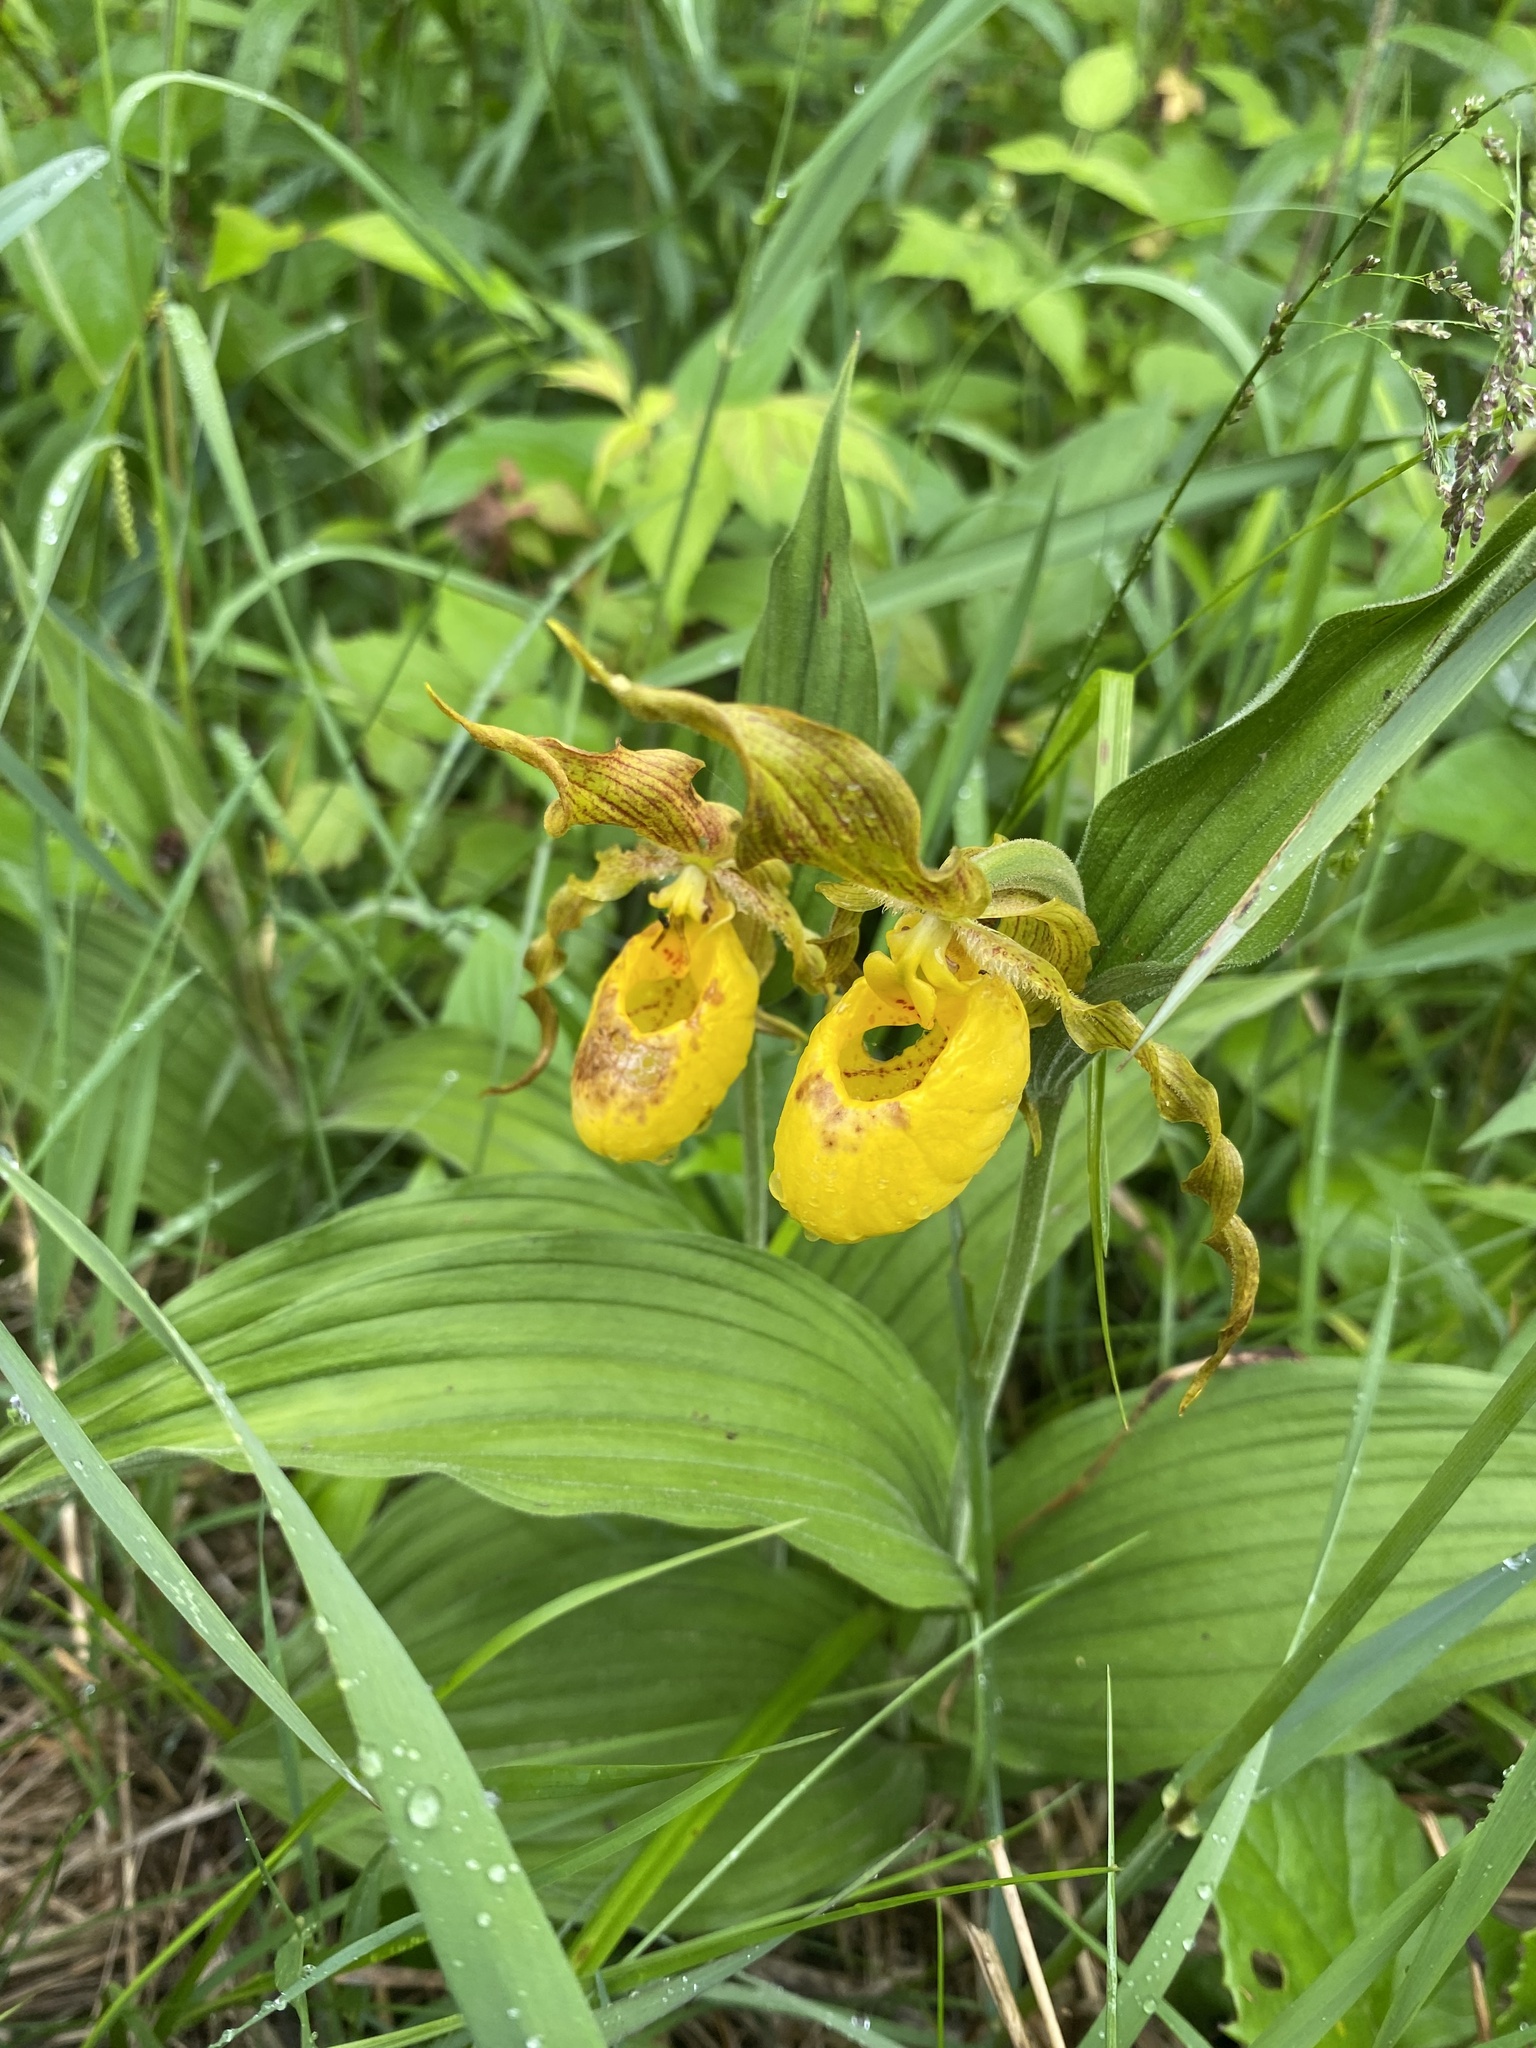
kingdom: Plantae
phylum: Tracheophyta
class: Liliopsida
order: Asparagales
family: Orchidaceae
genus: Cypripedium
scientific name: Cypripedium parviflorum
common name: American yellow lady's-slipper
